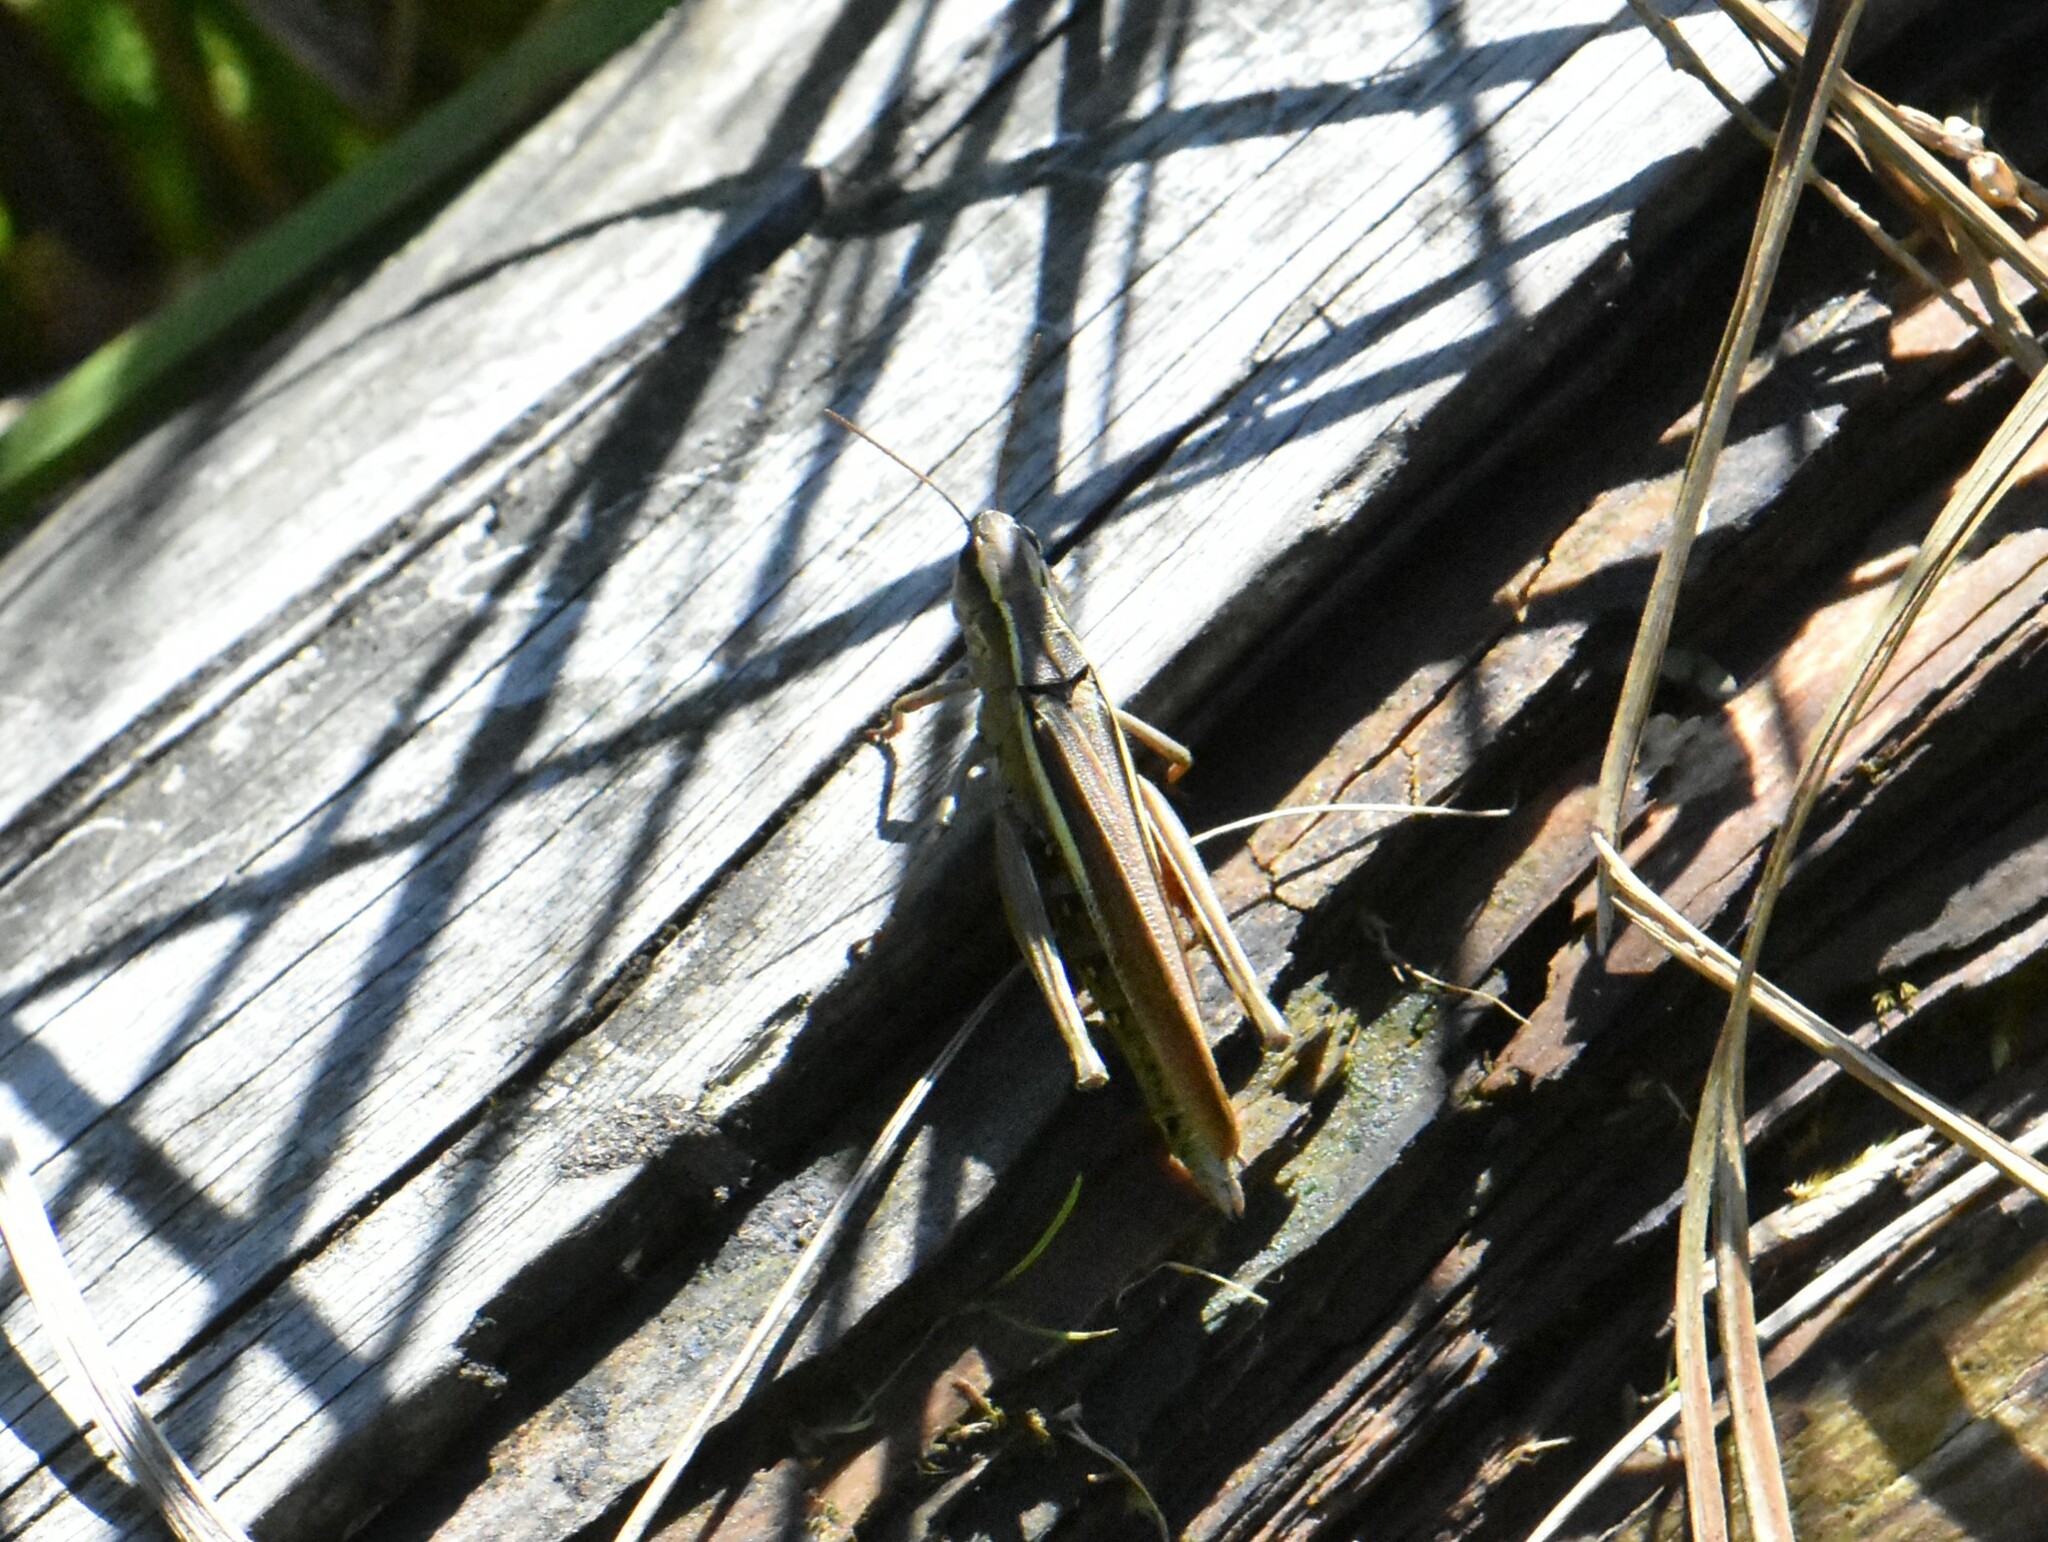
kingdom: Animalia
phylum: Arthropoda
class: Insecta
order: Orthoptera
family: Acrididae
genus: Stethophyma
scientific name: Stethophyma grossum
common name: Large marsh grasshopper
